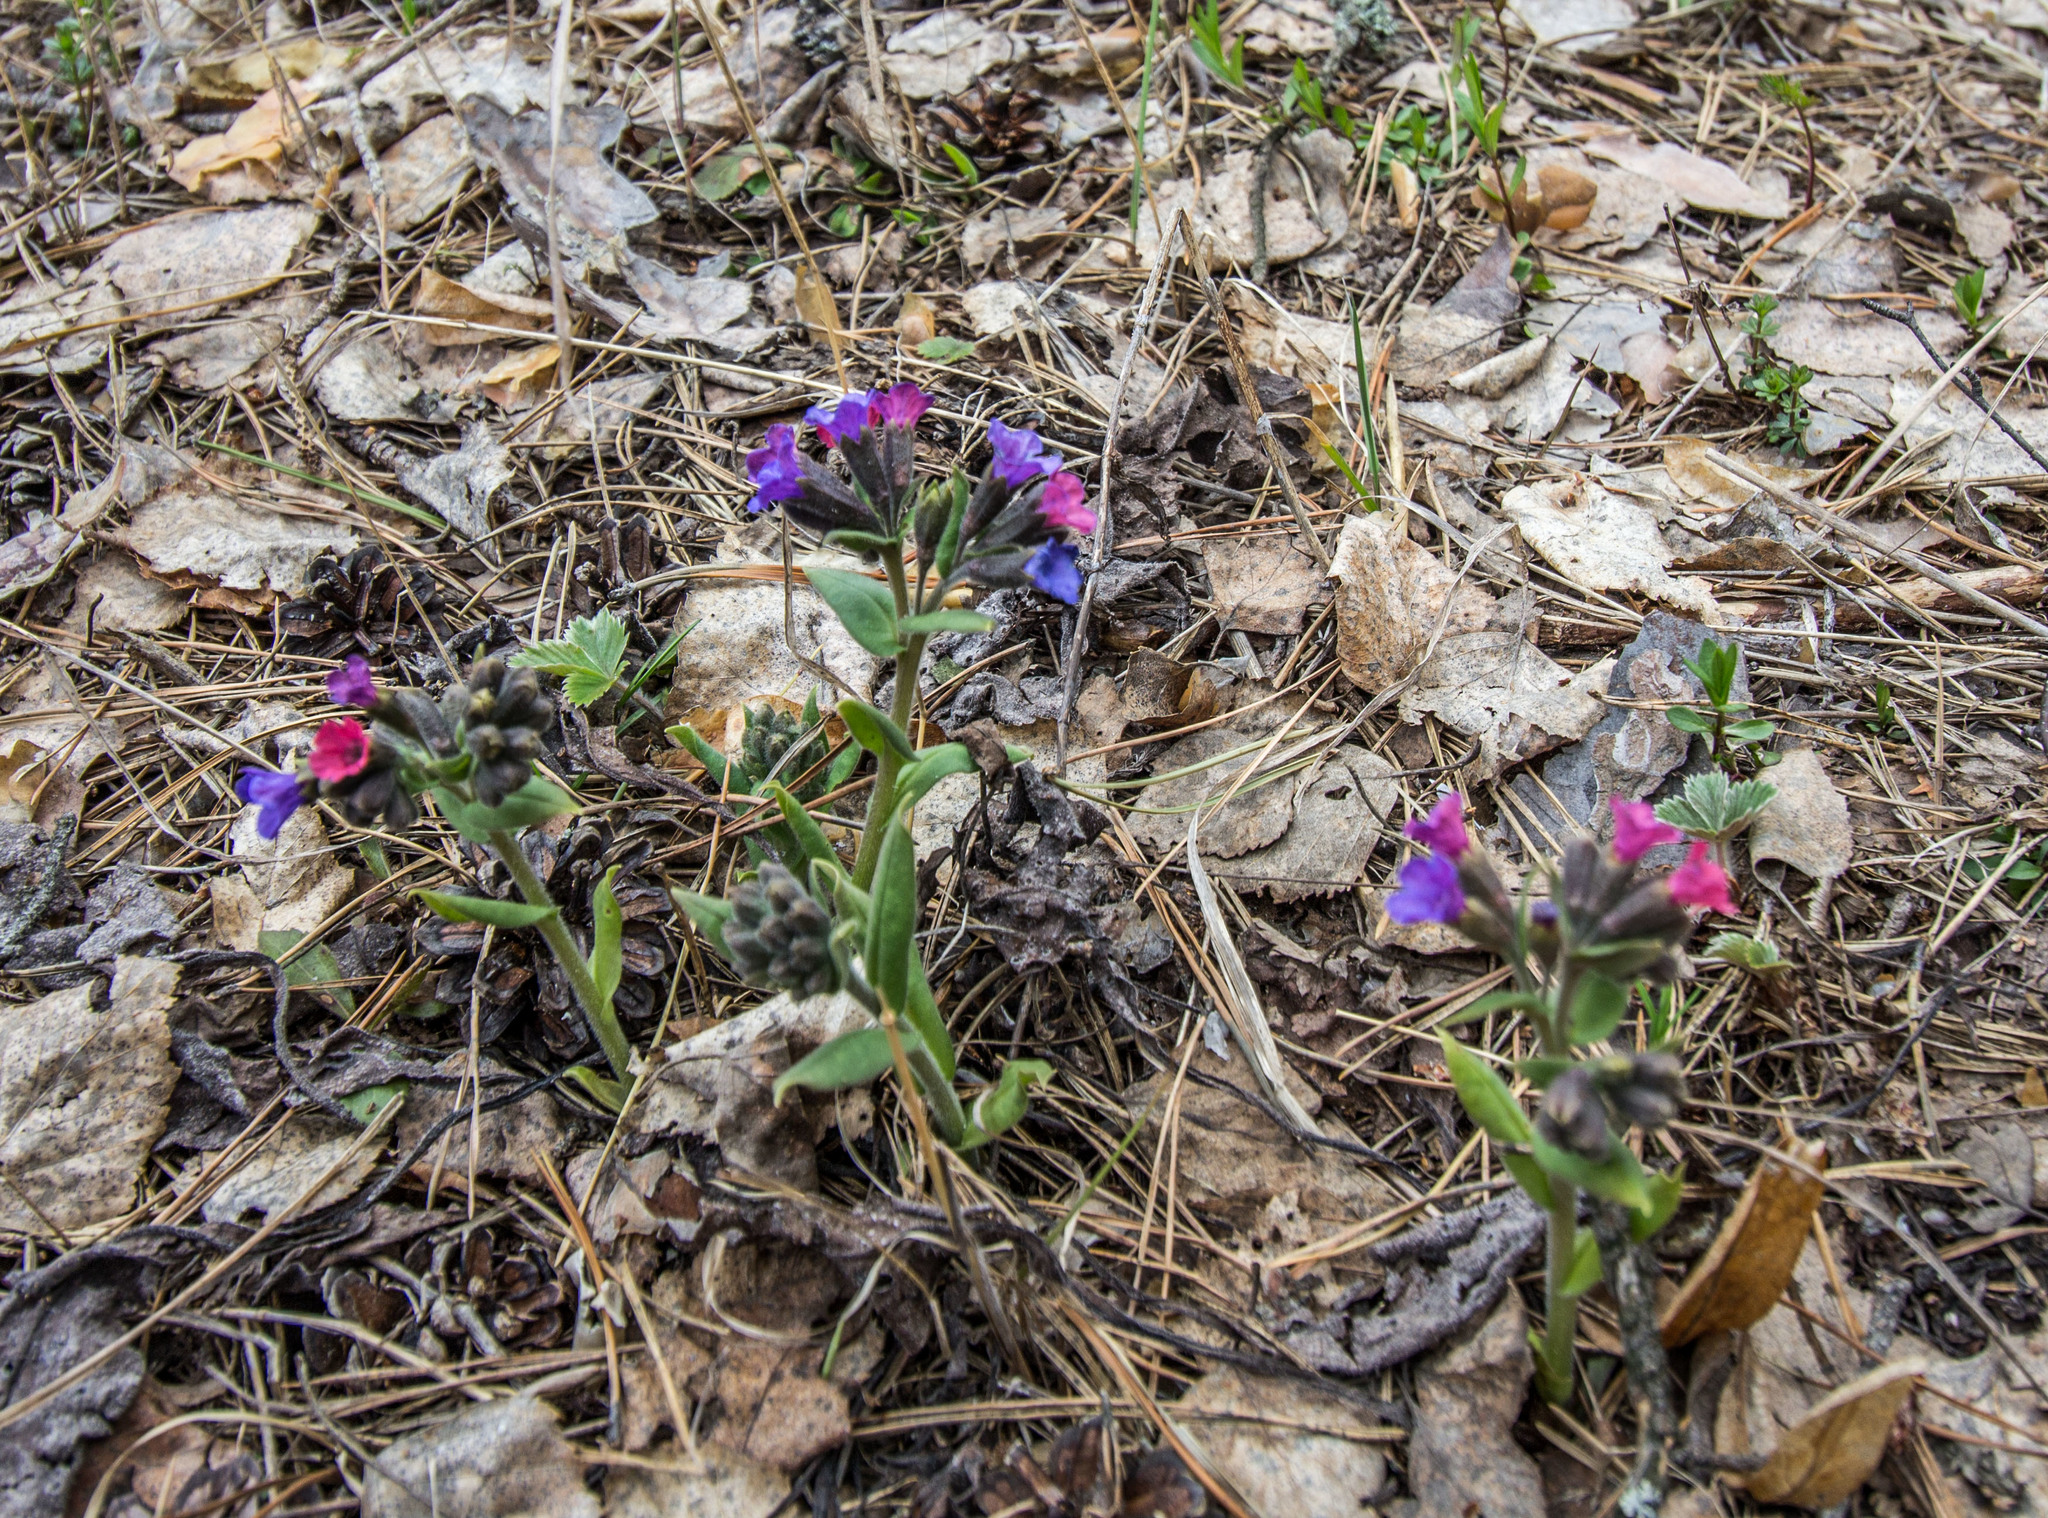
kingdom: Plantae
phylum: Tracheophyta
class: Magnoliopsida
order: Boraginales
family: Boraginaceae
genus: Pulmonaria
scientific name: Pulmonaria obscura
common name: Suffolk lungwort
